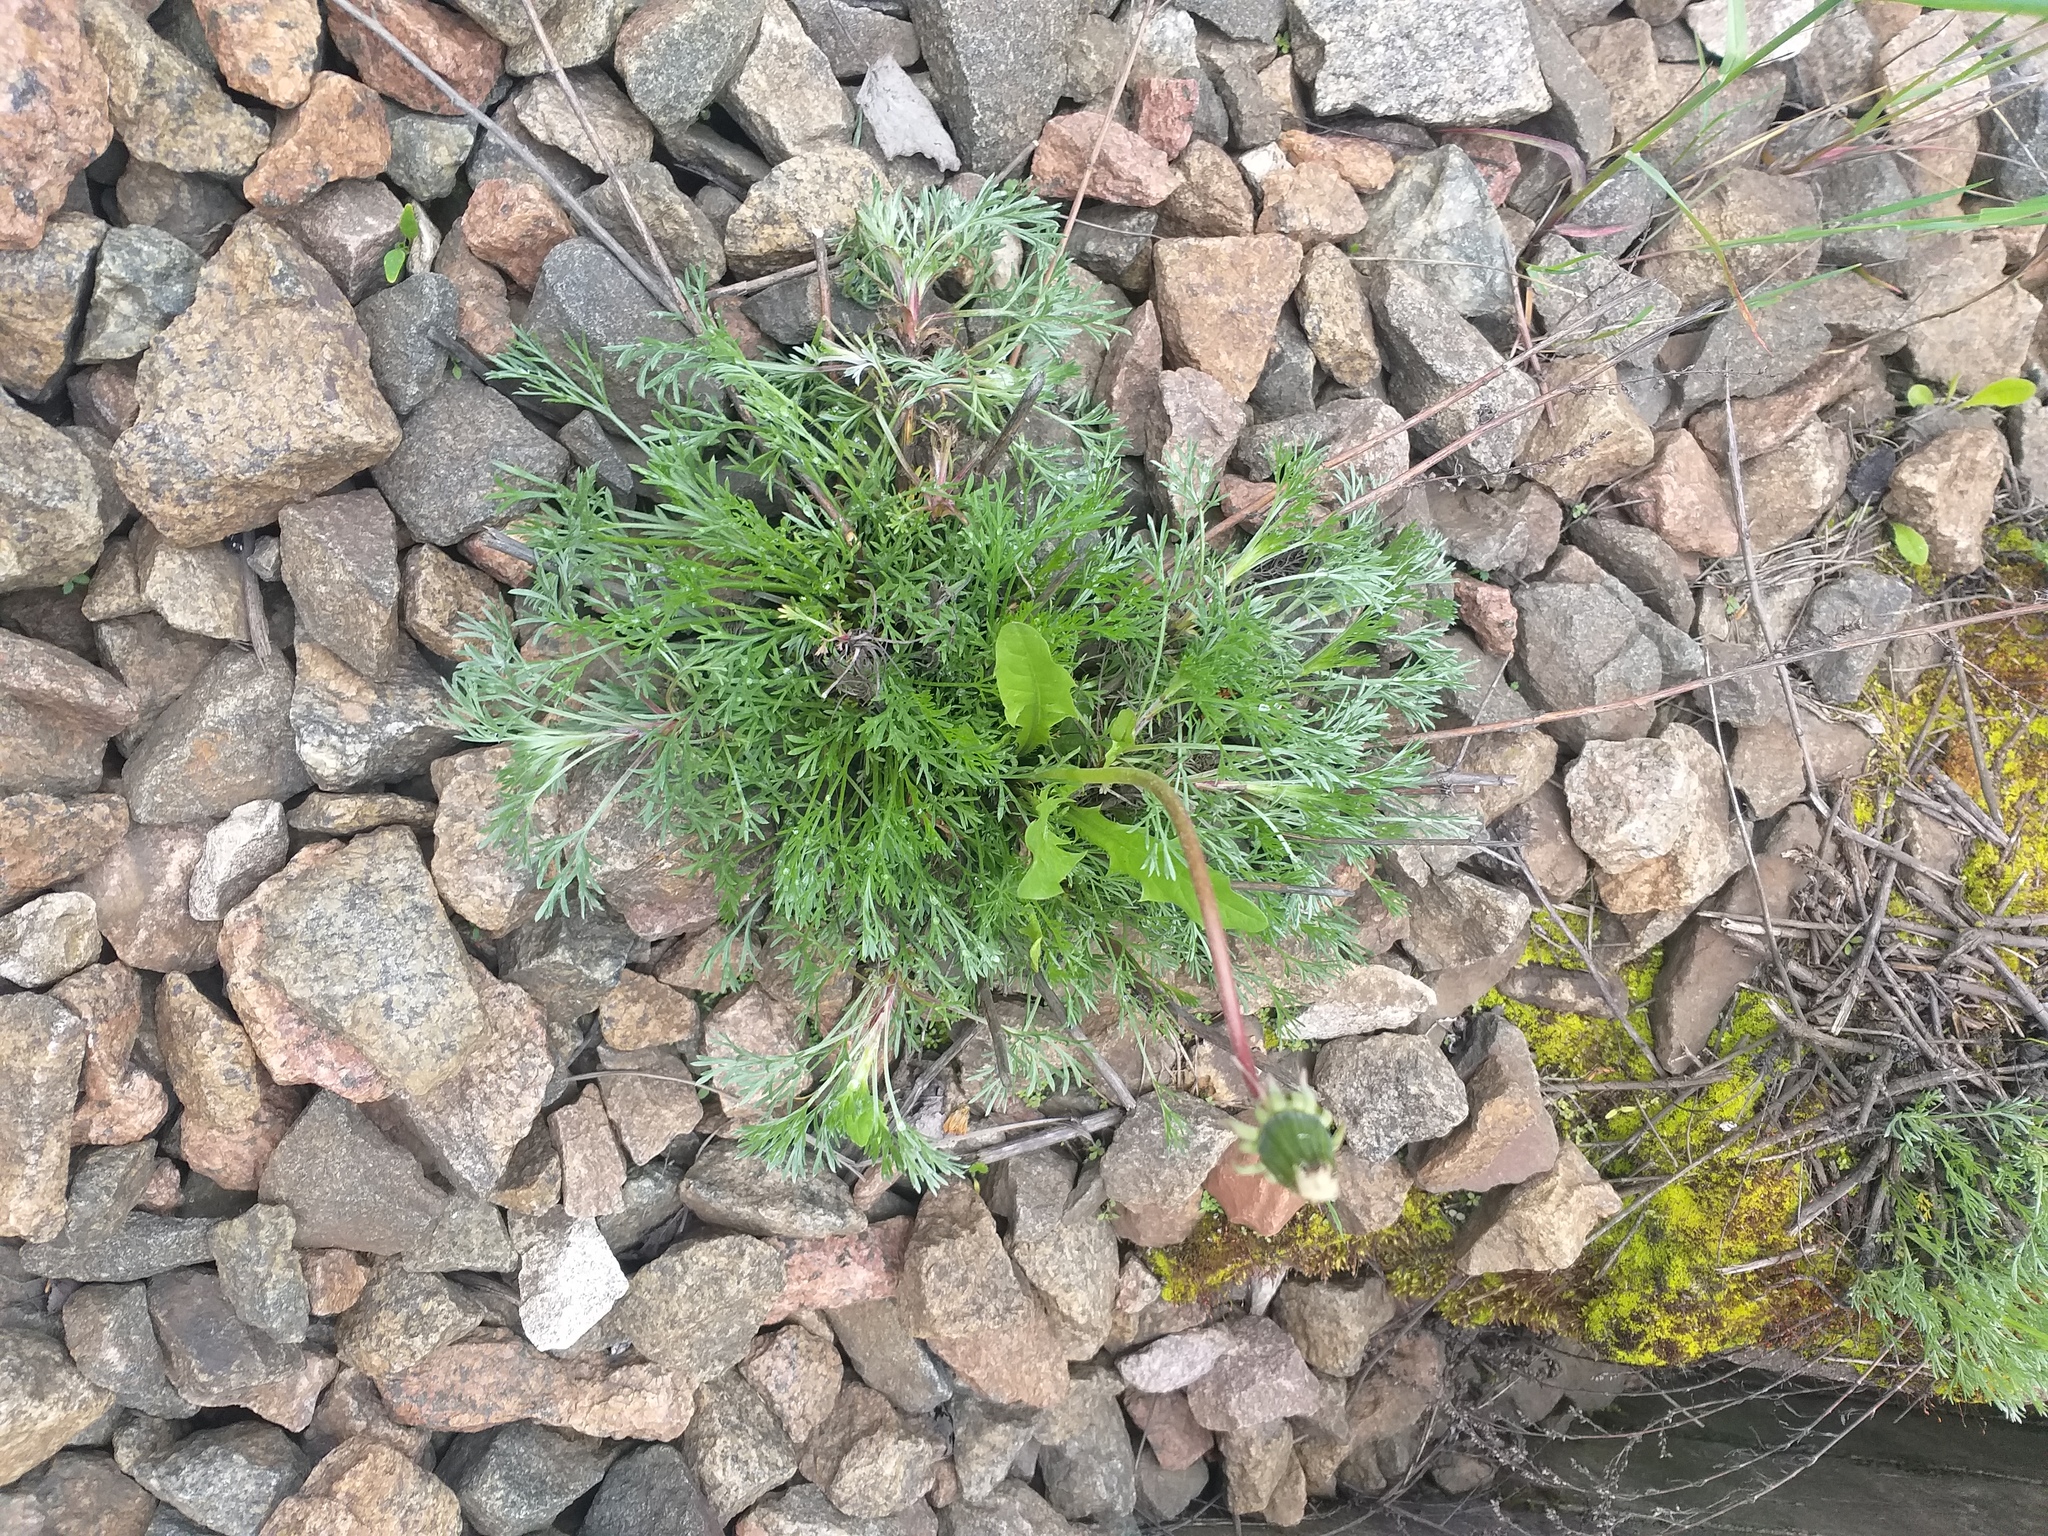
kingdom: Plantae
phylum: Tracheophyta
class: Magnoliopsida
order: Asterales
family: Asteraceae
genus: Artemisia
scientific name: Artemisia campestris
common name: Field wormwood
